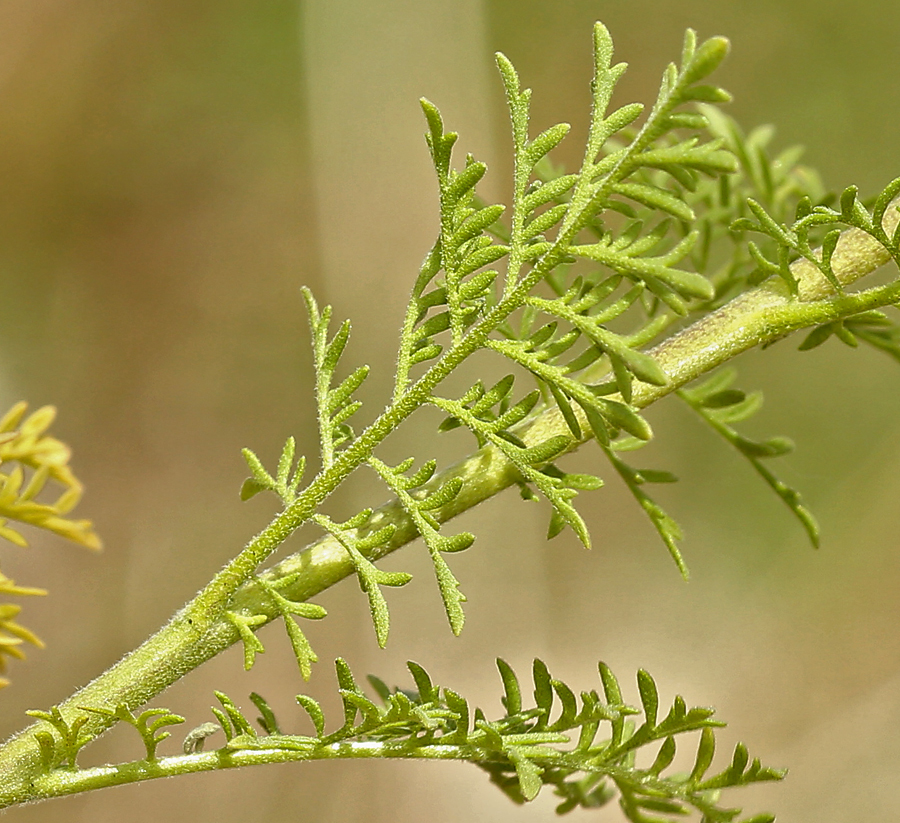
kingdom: Plantae
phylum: Tracheophyta
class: Magnoliopsida
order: Brassicales
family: Brassicaceae
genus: Descurainia
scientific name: Descurainia sophia
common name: Flixweed
